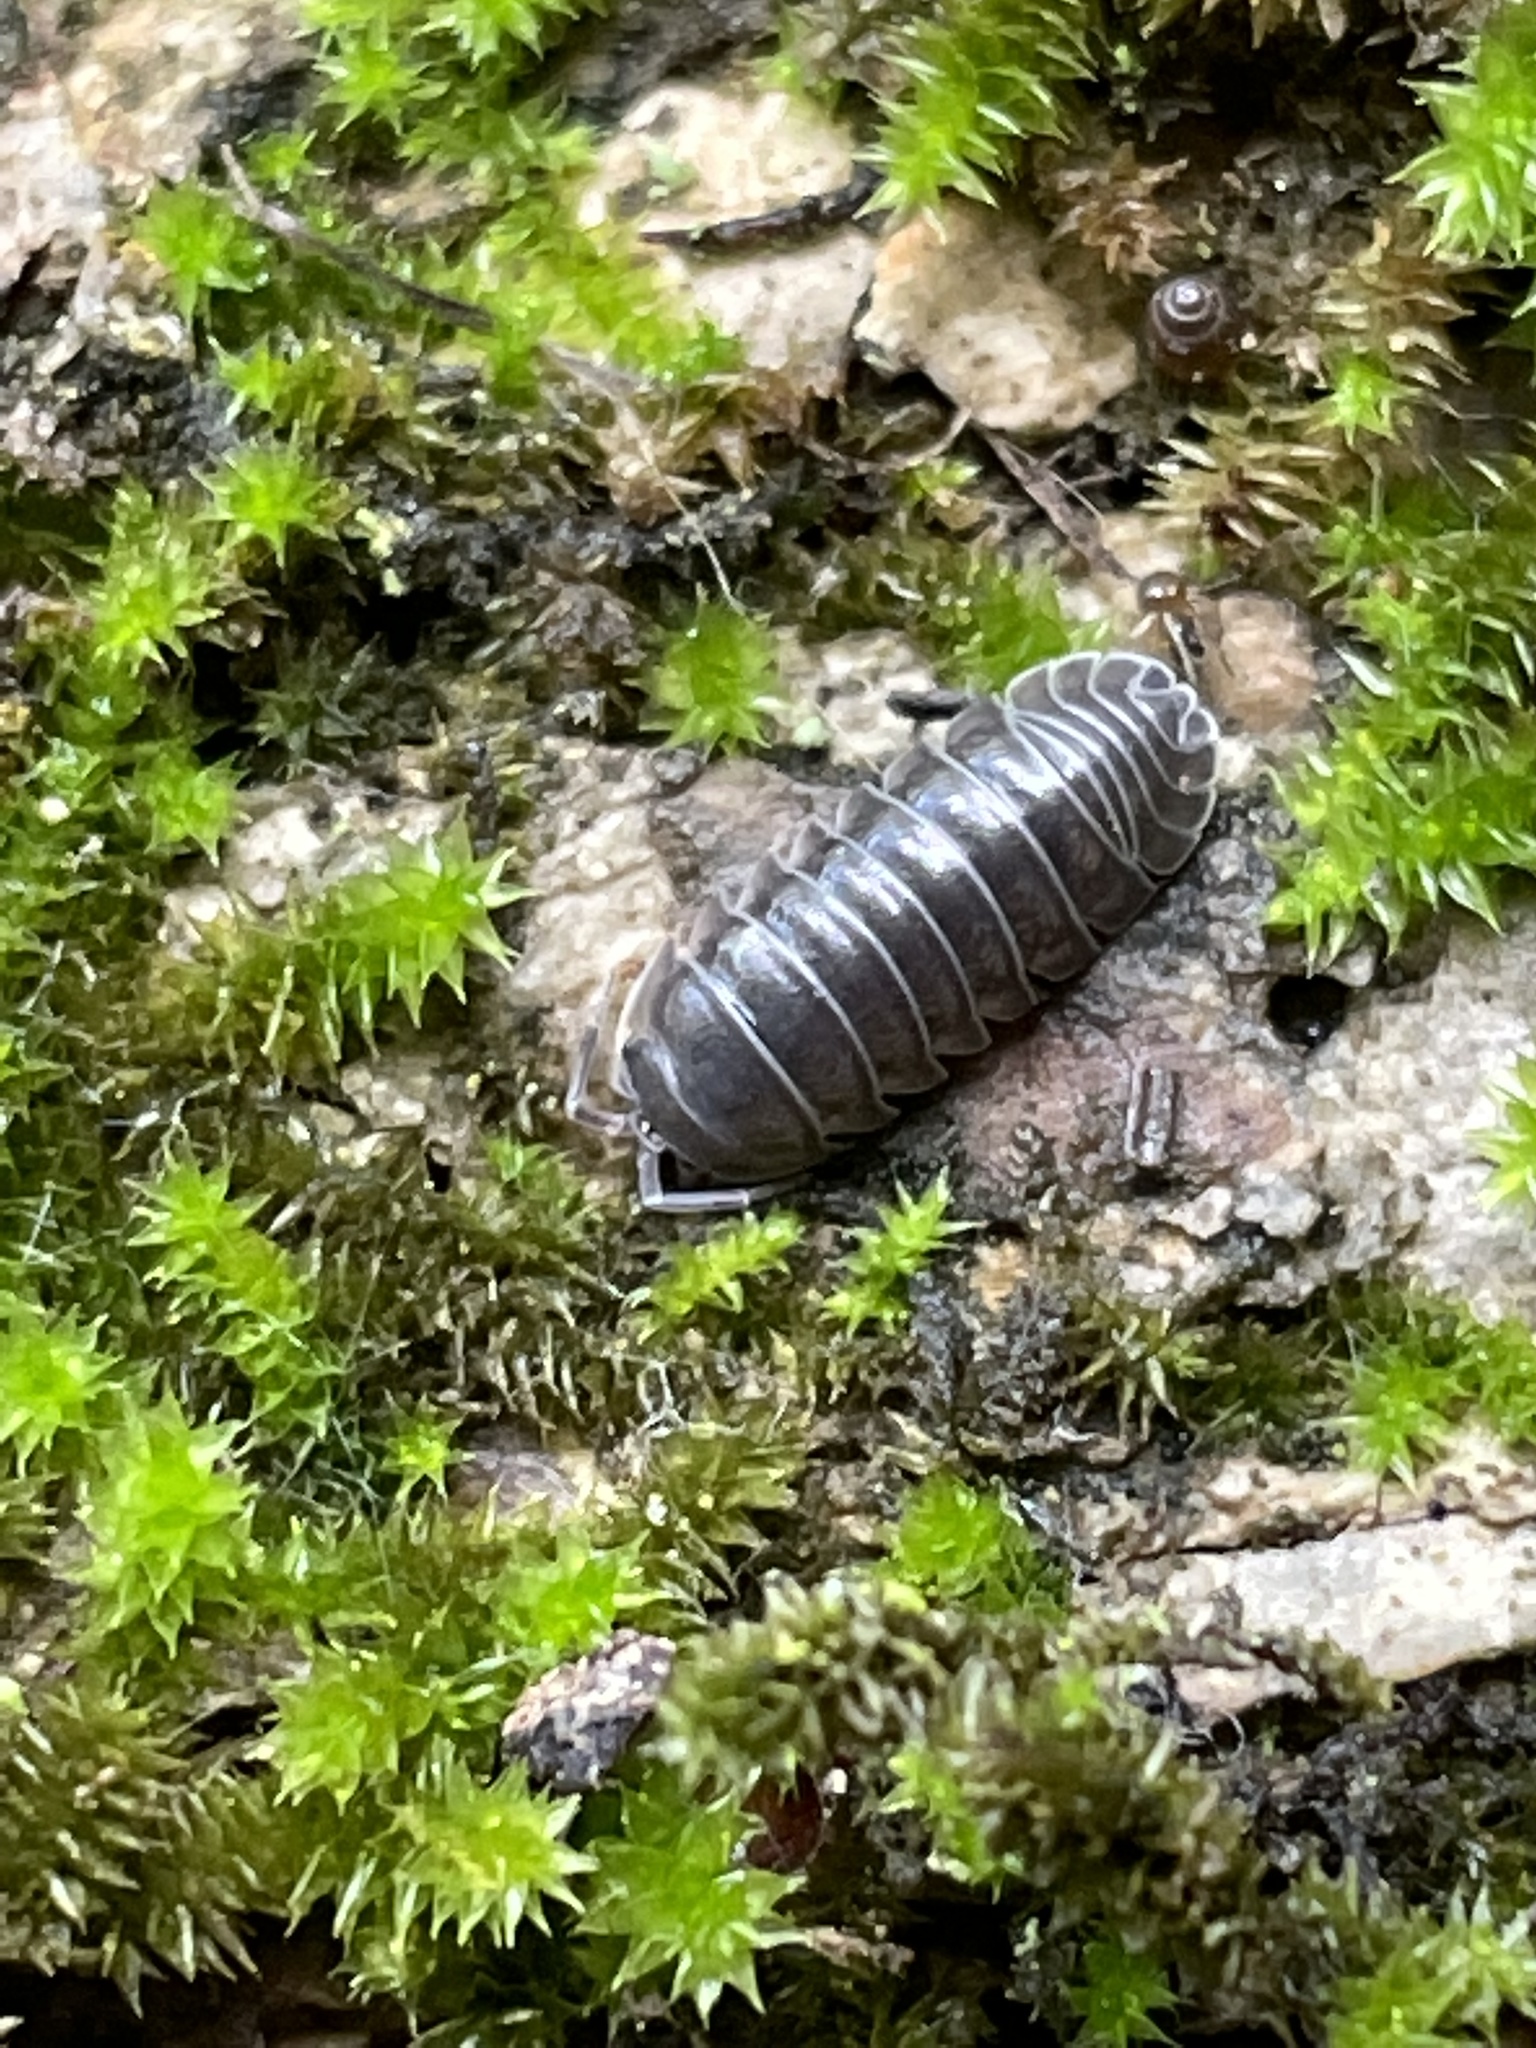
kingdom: Animalia
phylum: Arthropoda
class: Malacostraca
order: Isopoda
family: Armadillidiidae
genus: Armadillidium
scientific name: Armadillidium nasatum
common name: Isopod
